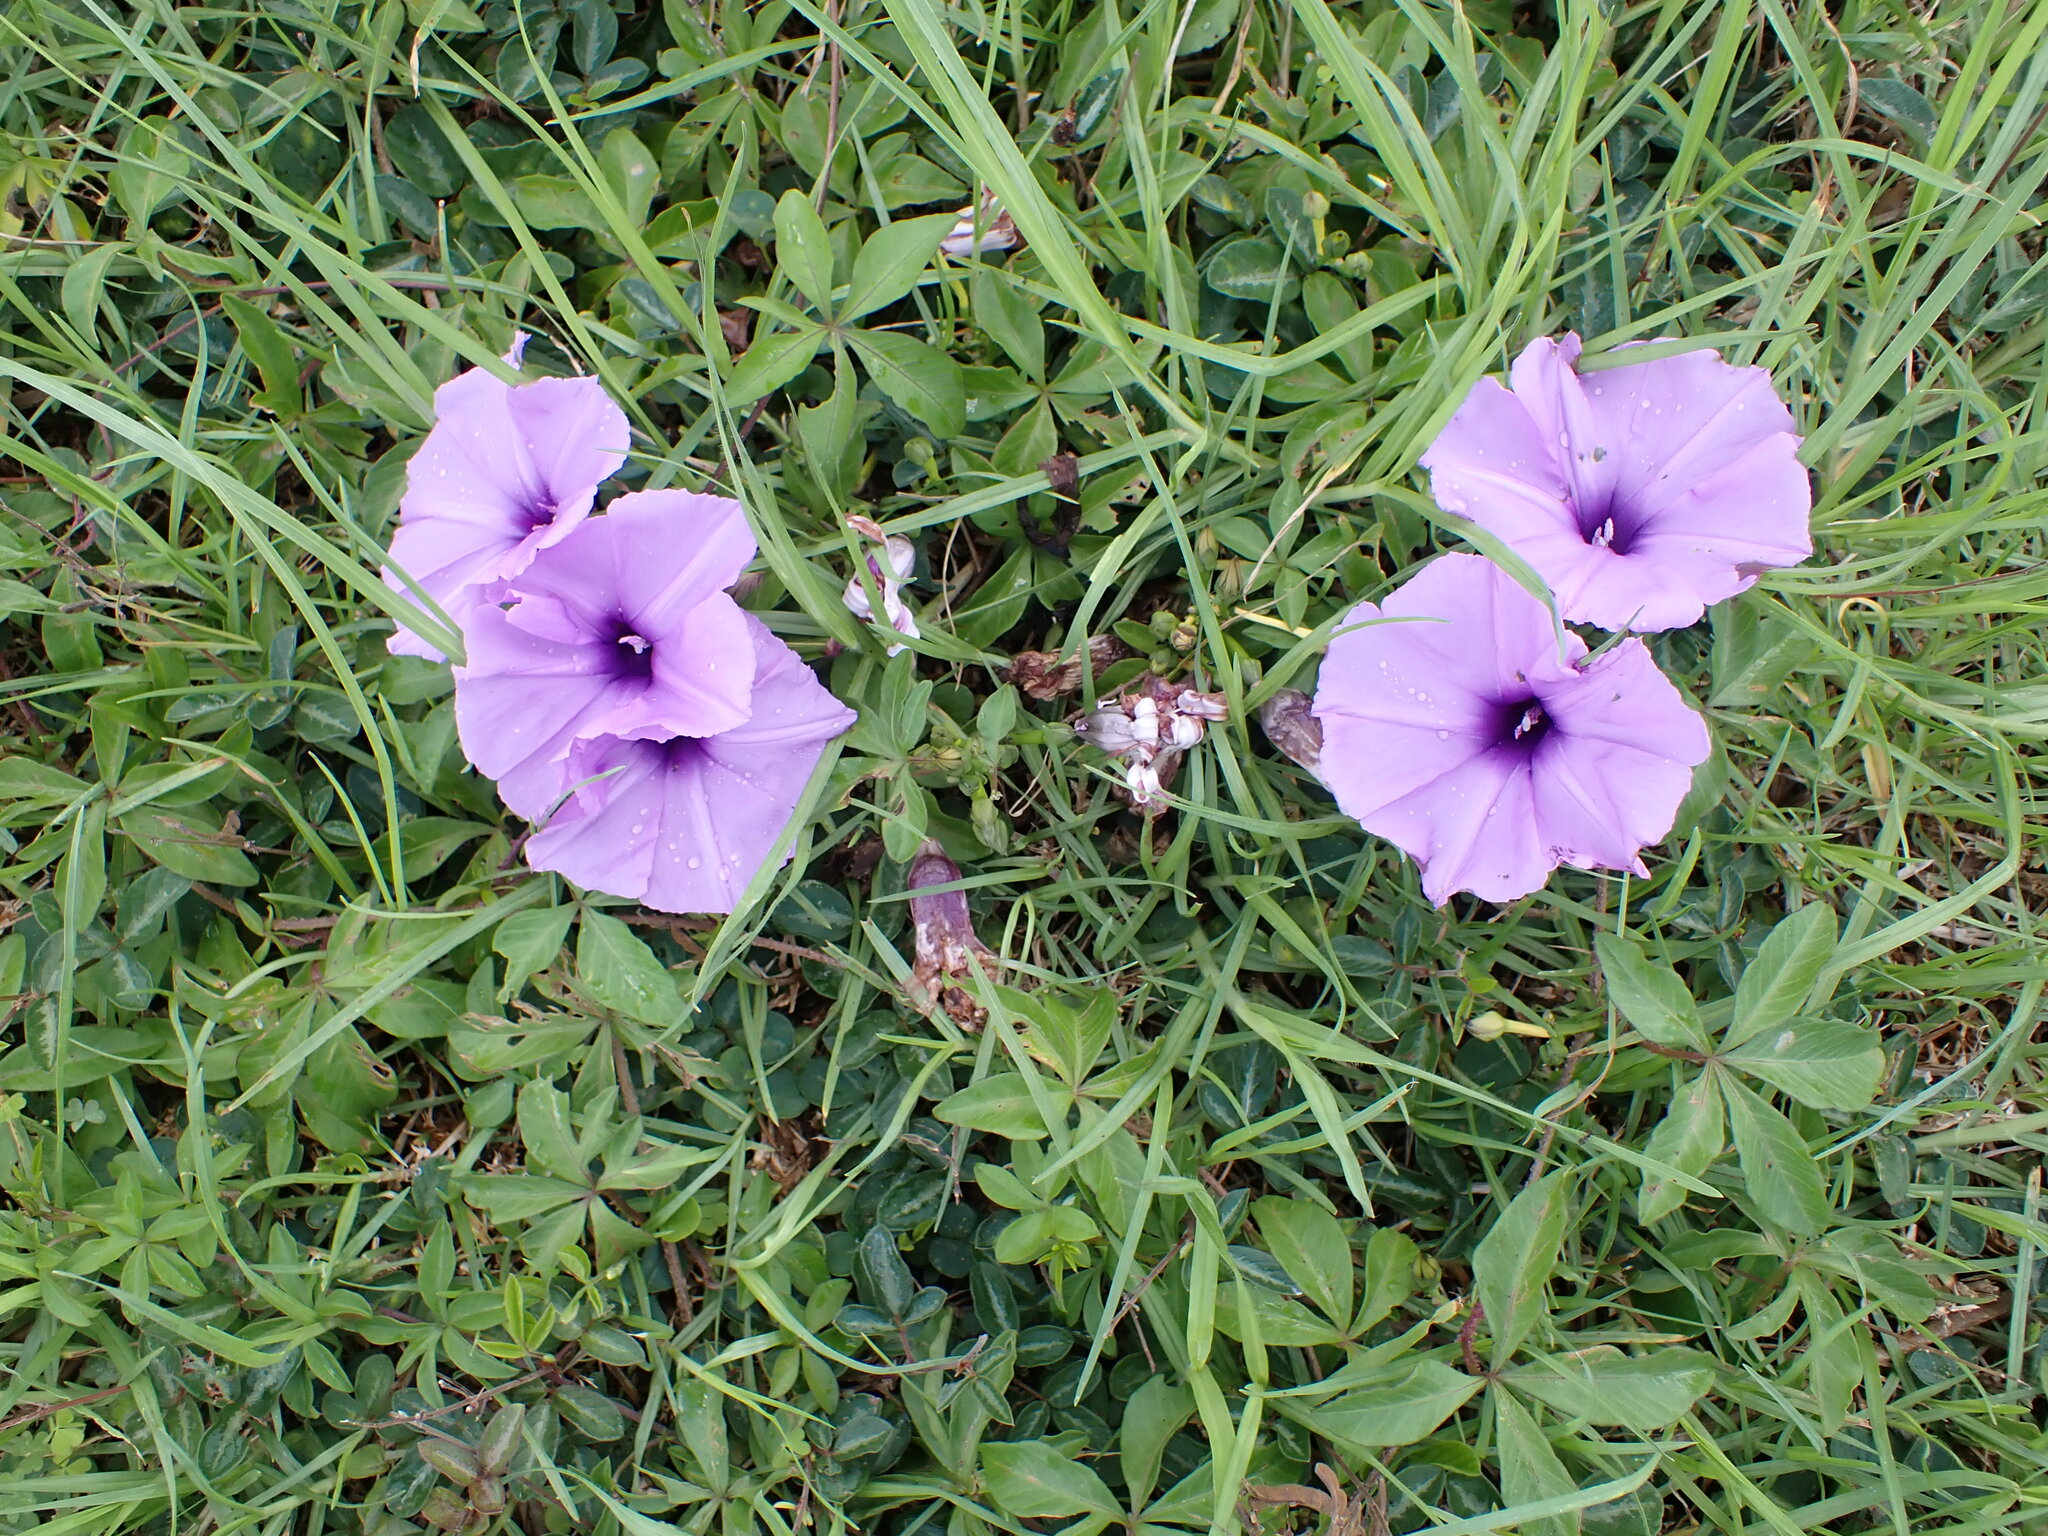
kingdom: Plantae
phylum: Tracheophyta
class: Magnoliopsida
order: Solanales
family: Convolvulaceae
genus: Ipomoea
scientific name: Ipomoea cairica
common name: Mile a minute vine
